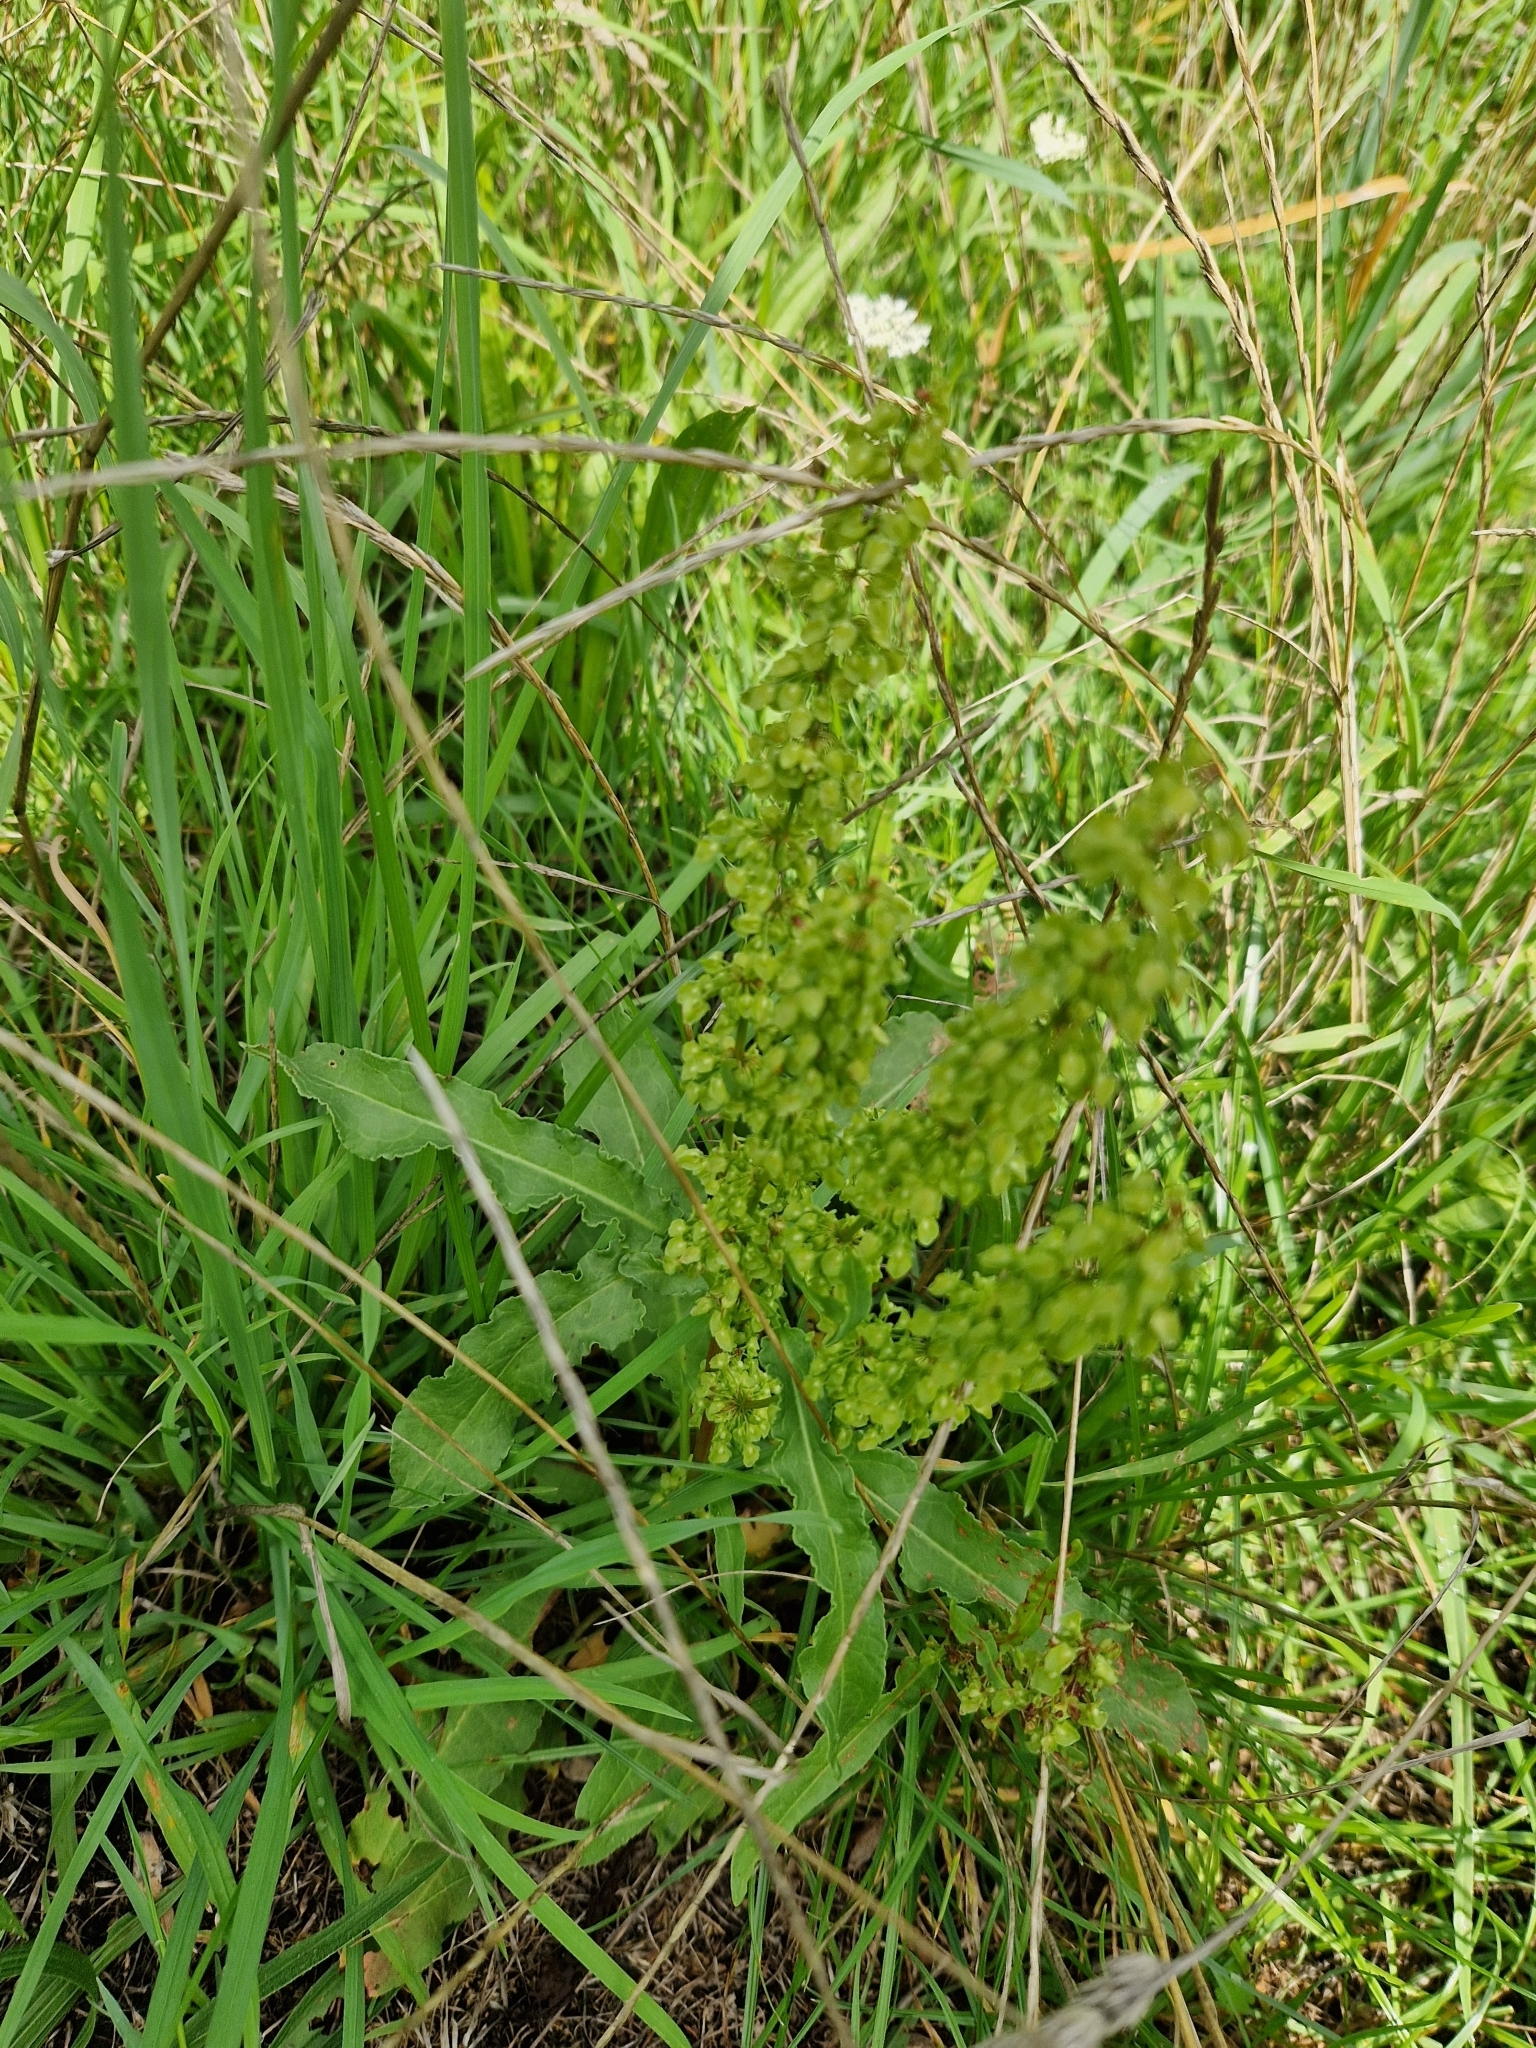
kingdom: Plantae
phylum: Tracheophyta
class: Magnoliopsida
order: Caryophyllales
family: Polygonaceae
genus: Rumex
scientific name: Rumex crispus
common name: Curled dock
